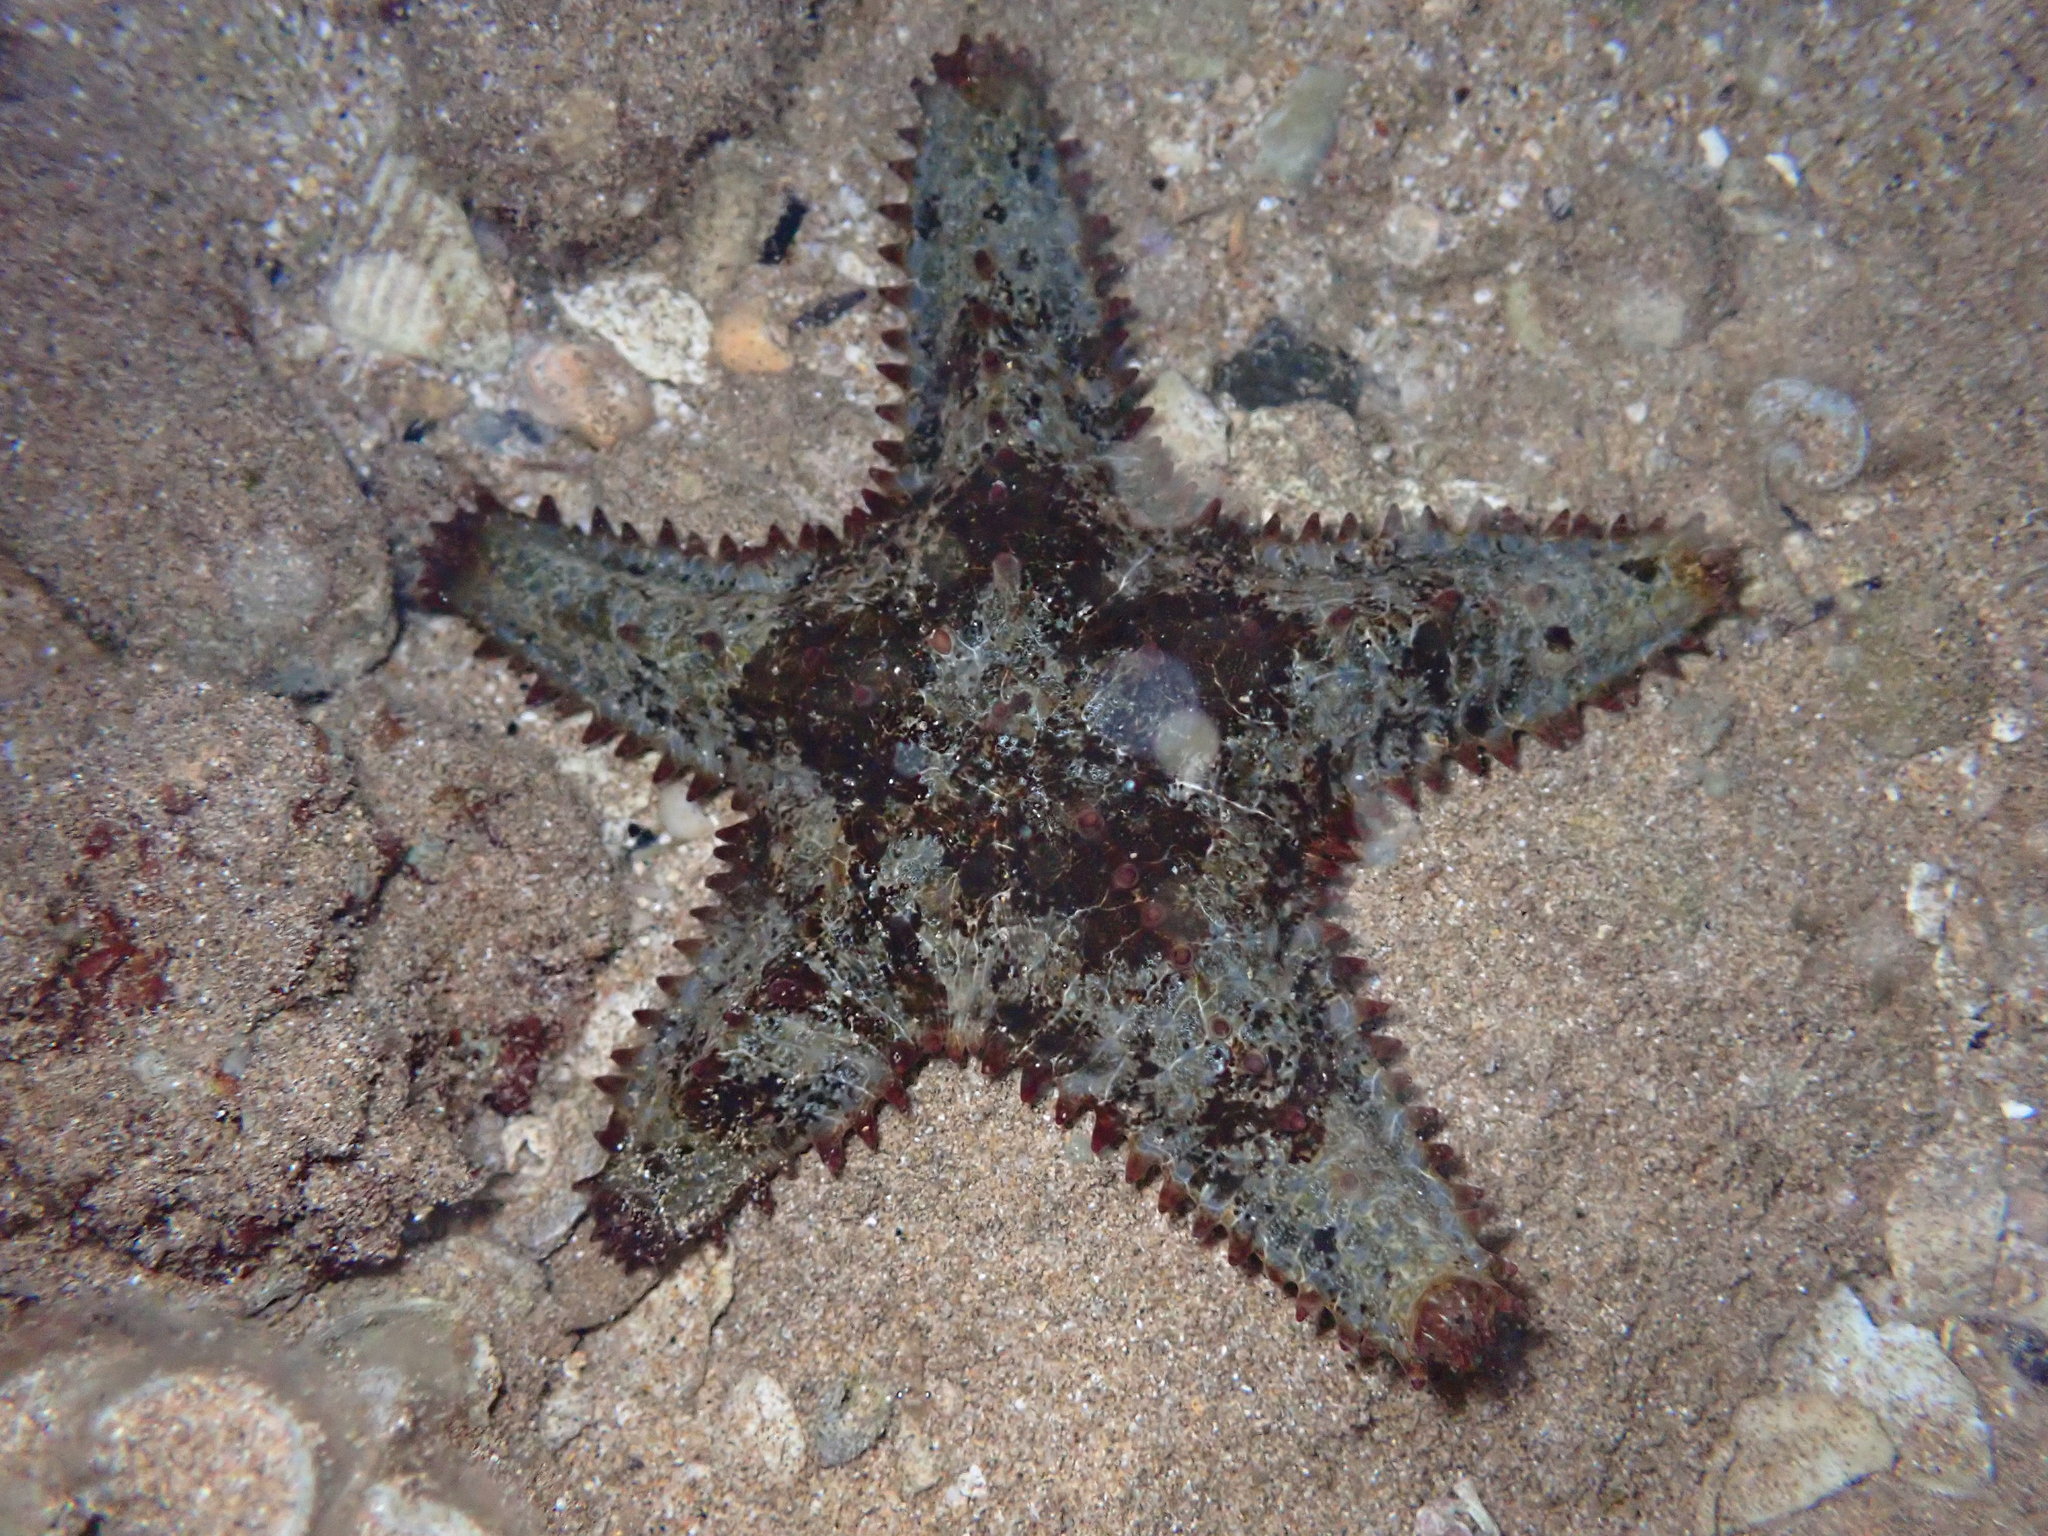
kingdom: Animalia
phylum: Echinodermata
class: Asteroidea
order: Valvatida
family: Asteropseidae
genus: Asteropsis
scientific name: Asteropsis carinifera
